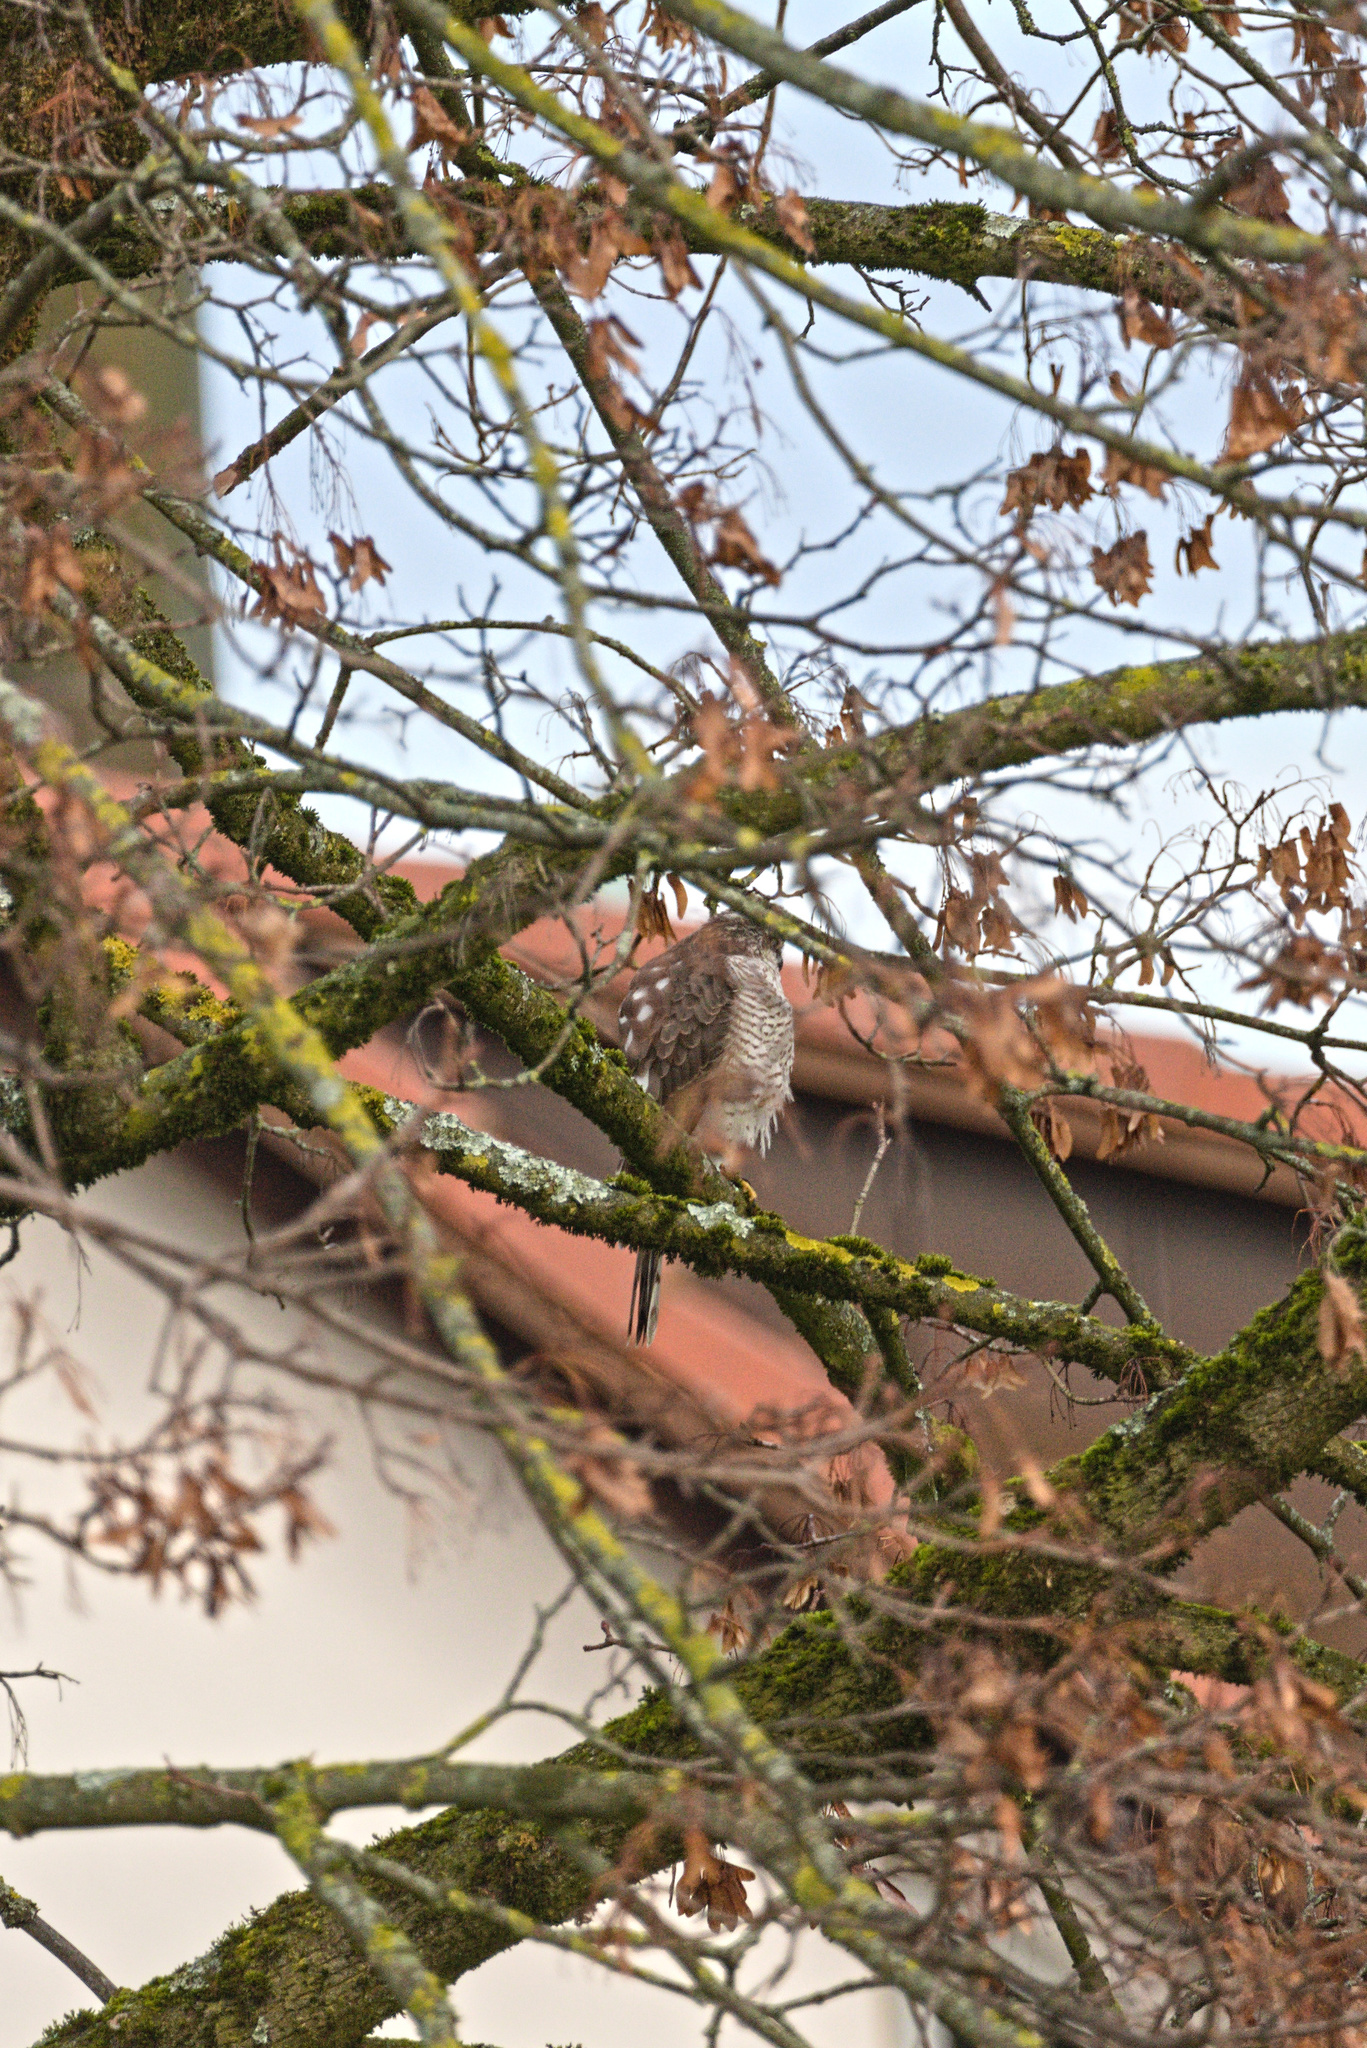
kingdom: Animalia
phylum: Chordata
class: Aves
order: Accipitriformes
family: Accipitridae
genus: Accipiter
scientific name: Accipiter nisus
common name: Eurasian sparrowhawk
